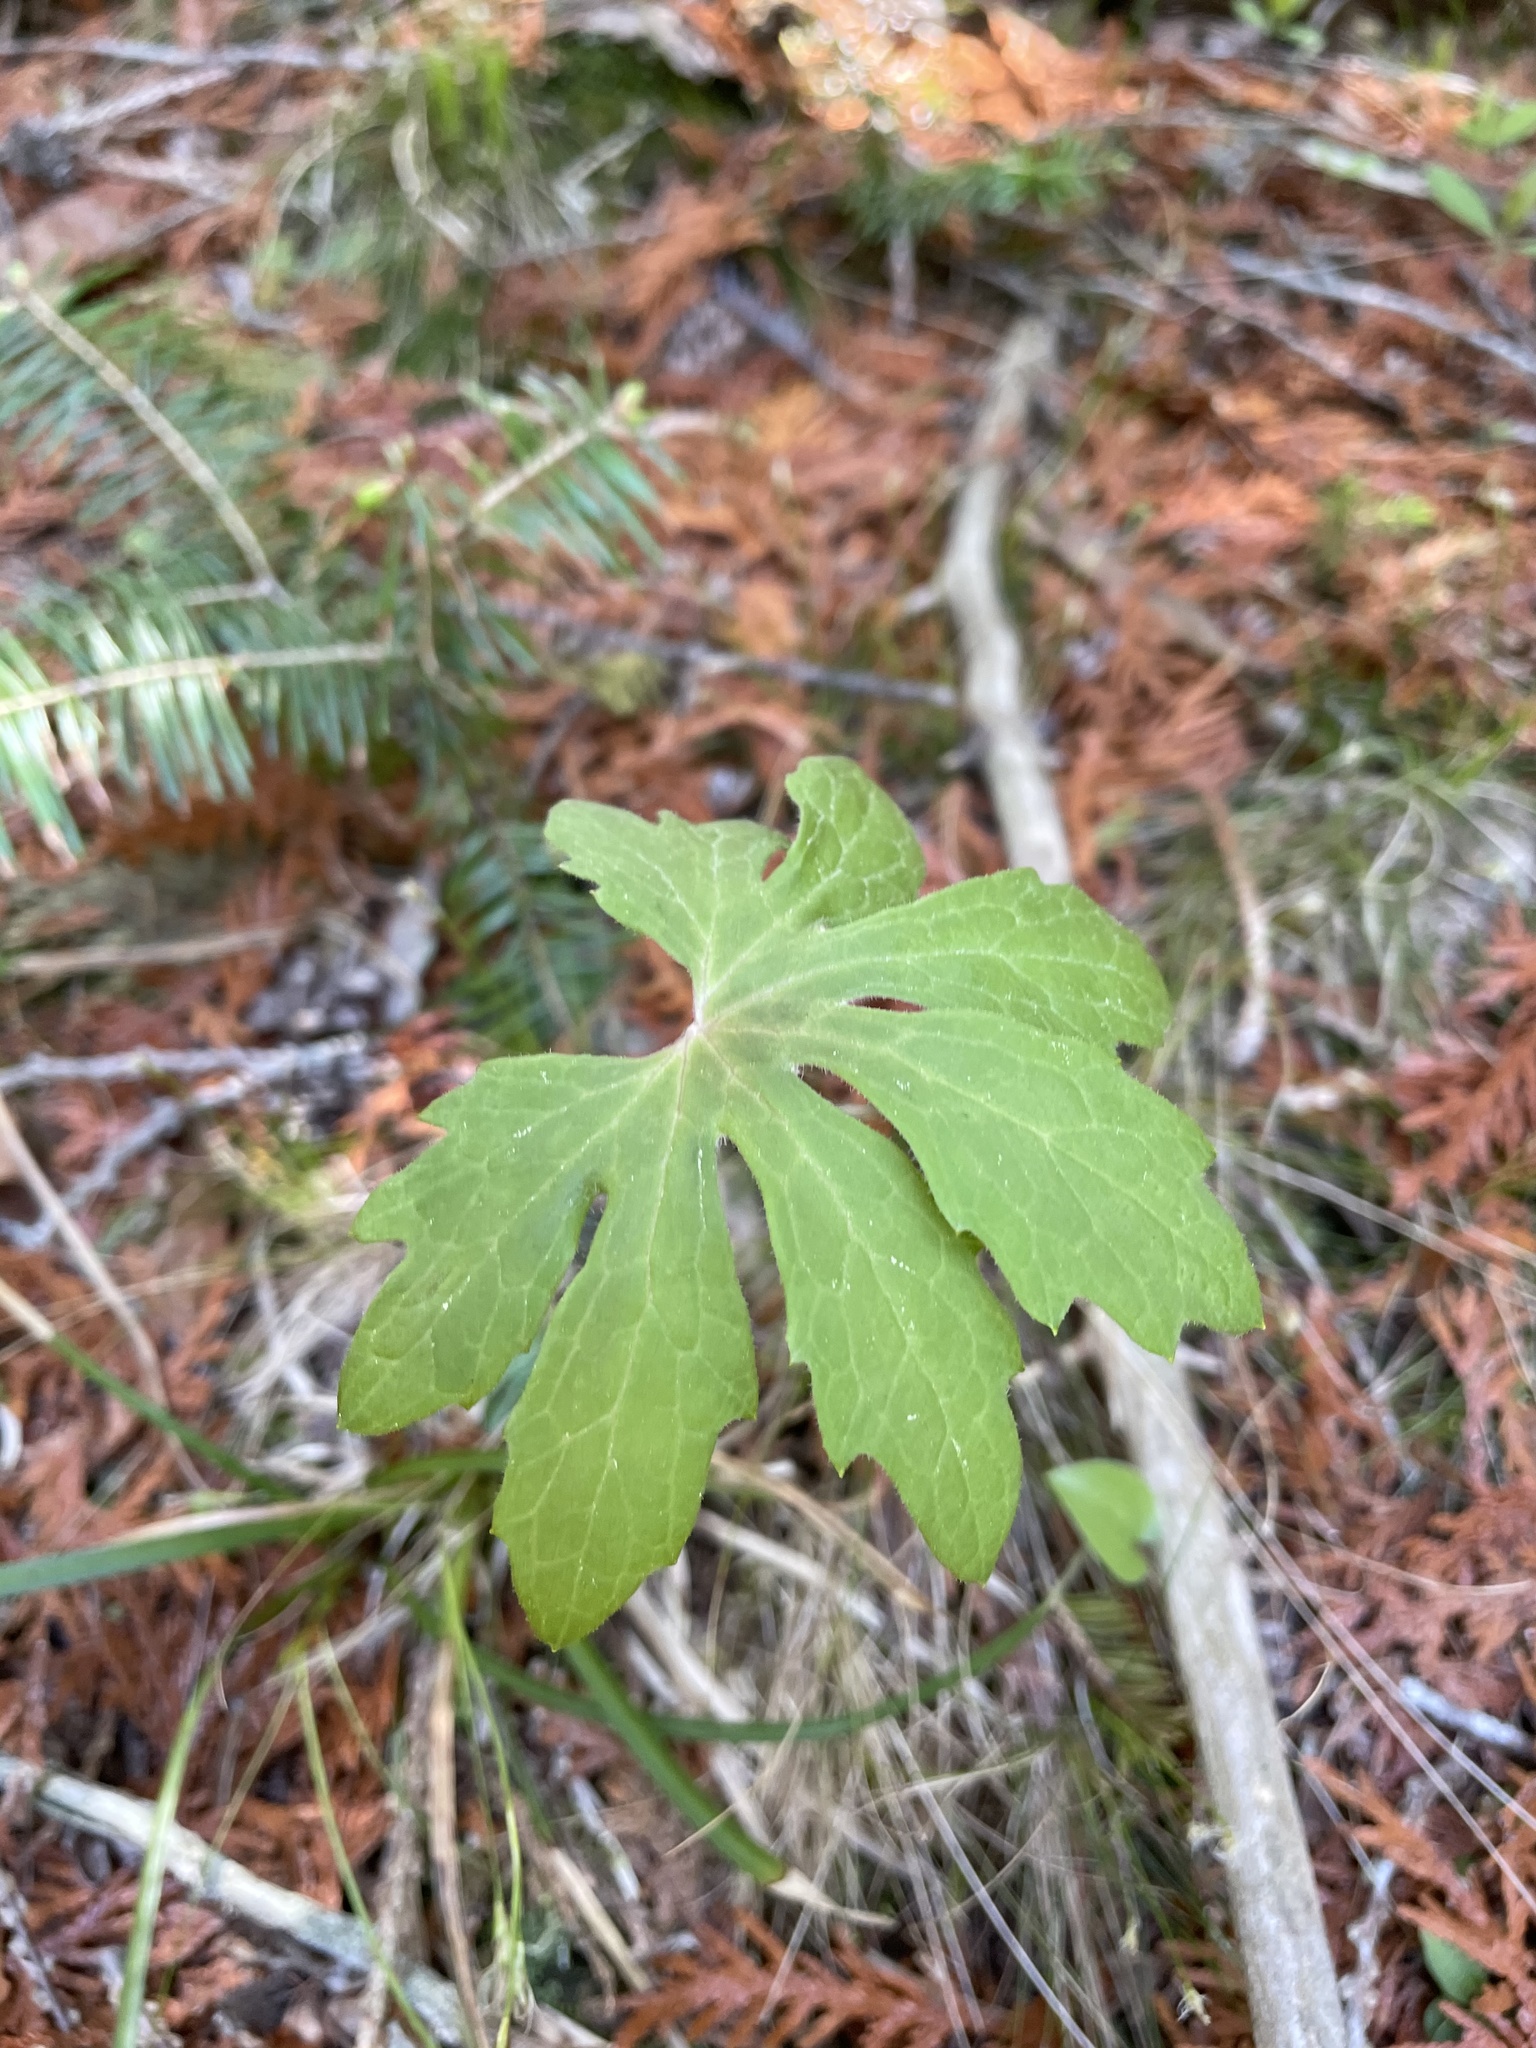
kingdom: Plantae
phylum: Tracheophyta
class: Magnoliopsida
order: Asterales
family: Asteraceae
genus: Petasites
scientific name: Petasites frigidus
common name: Arctic butterbur
